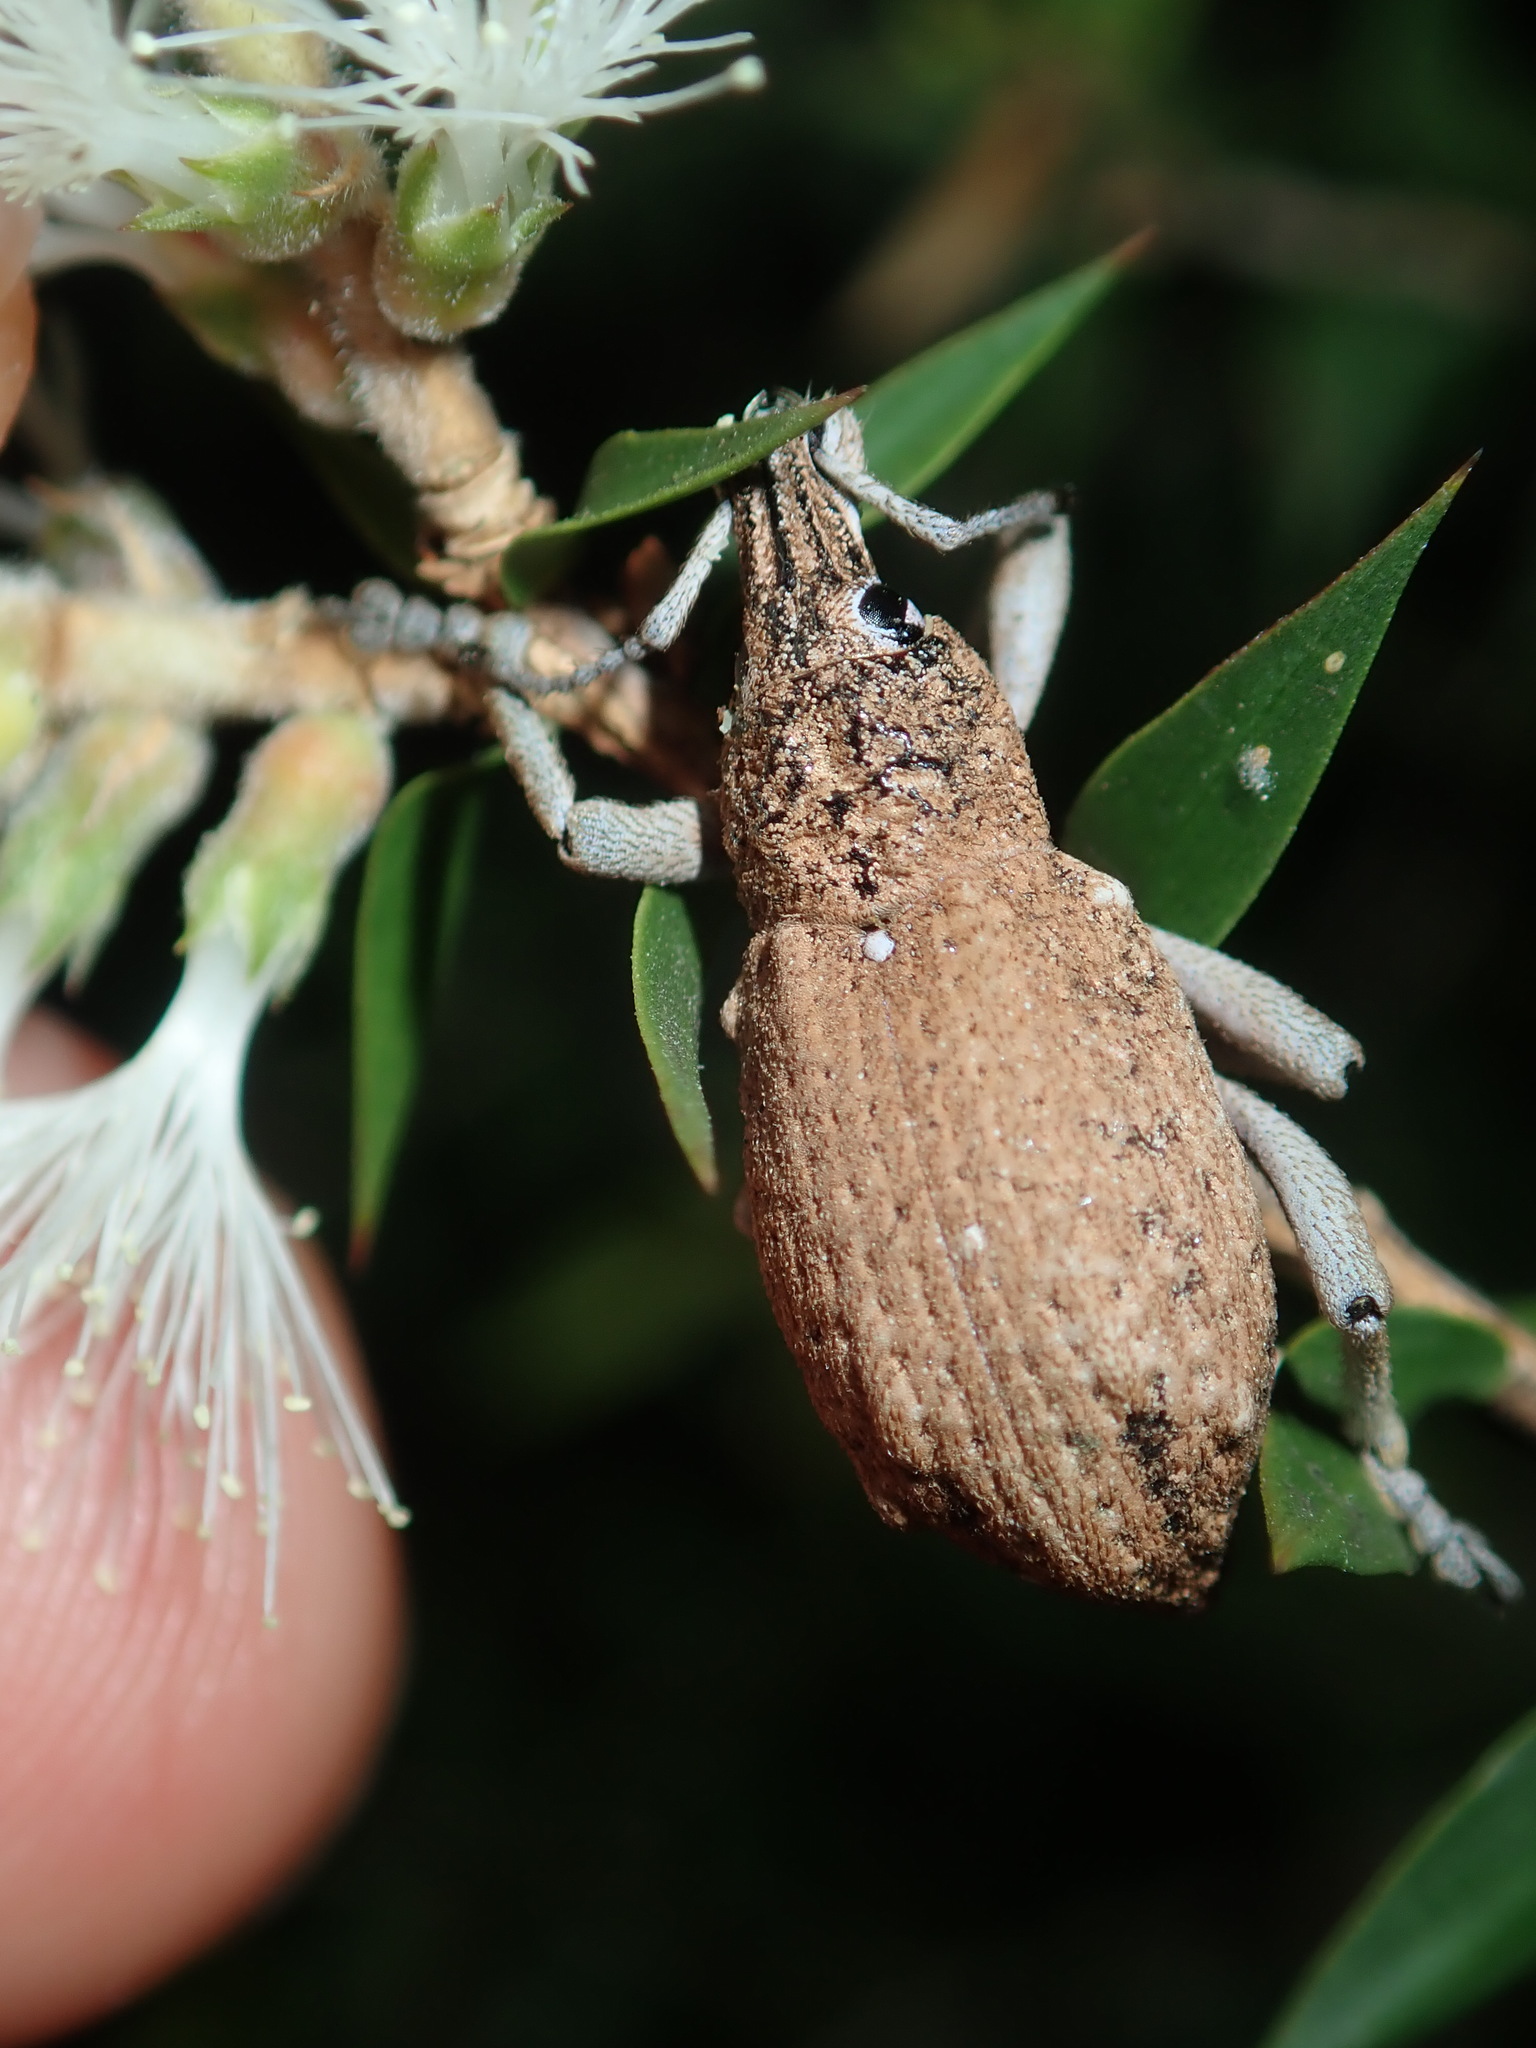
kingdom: Animalia
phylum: Arthropoda
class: Insecta
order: Coleoptera
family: Curculionidae
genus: Leptopius
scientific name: Leptopius robustus
